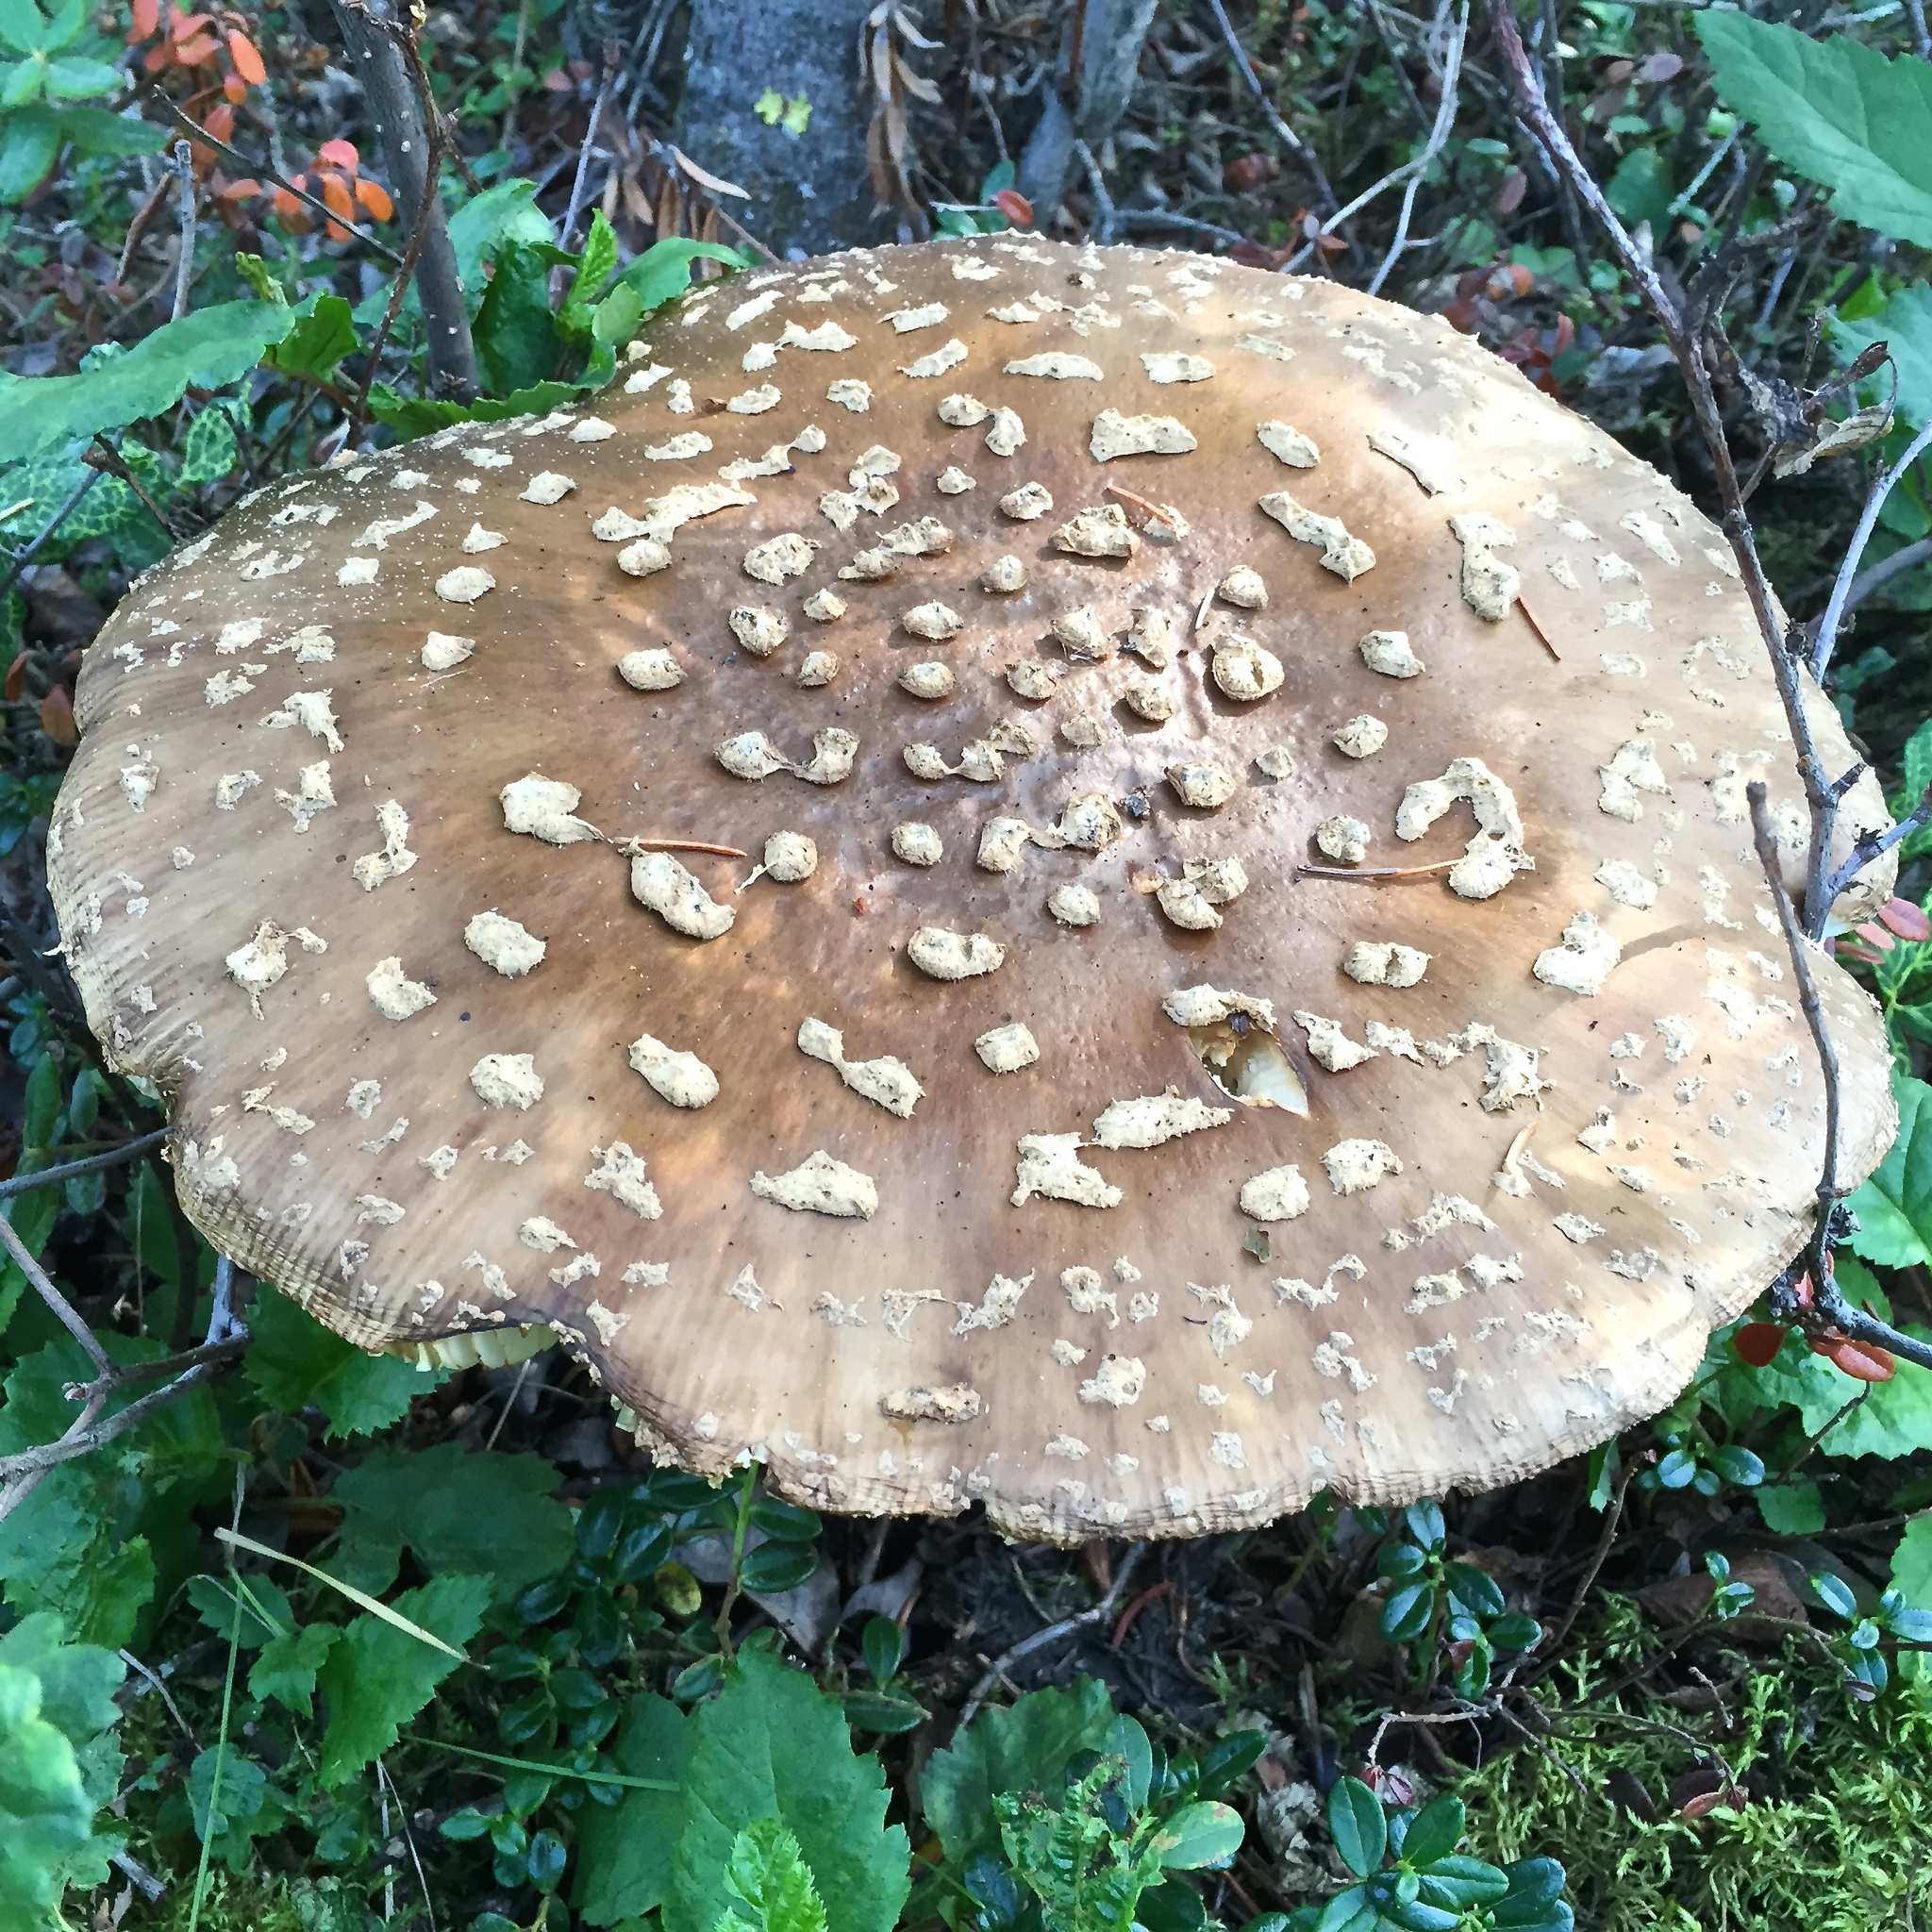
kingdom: Fungi
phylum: Basidiomycota
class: Agaricomycetes
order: Agaricales
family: Amanitaceae
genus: Amanita
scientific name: Amanita muscaria
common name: Fly agaric
